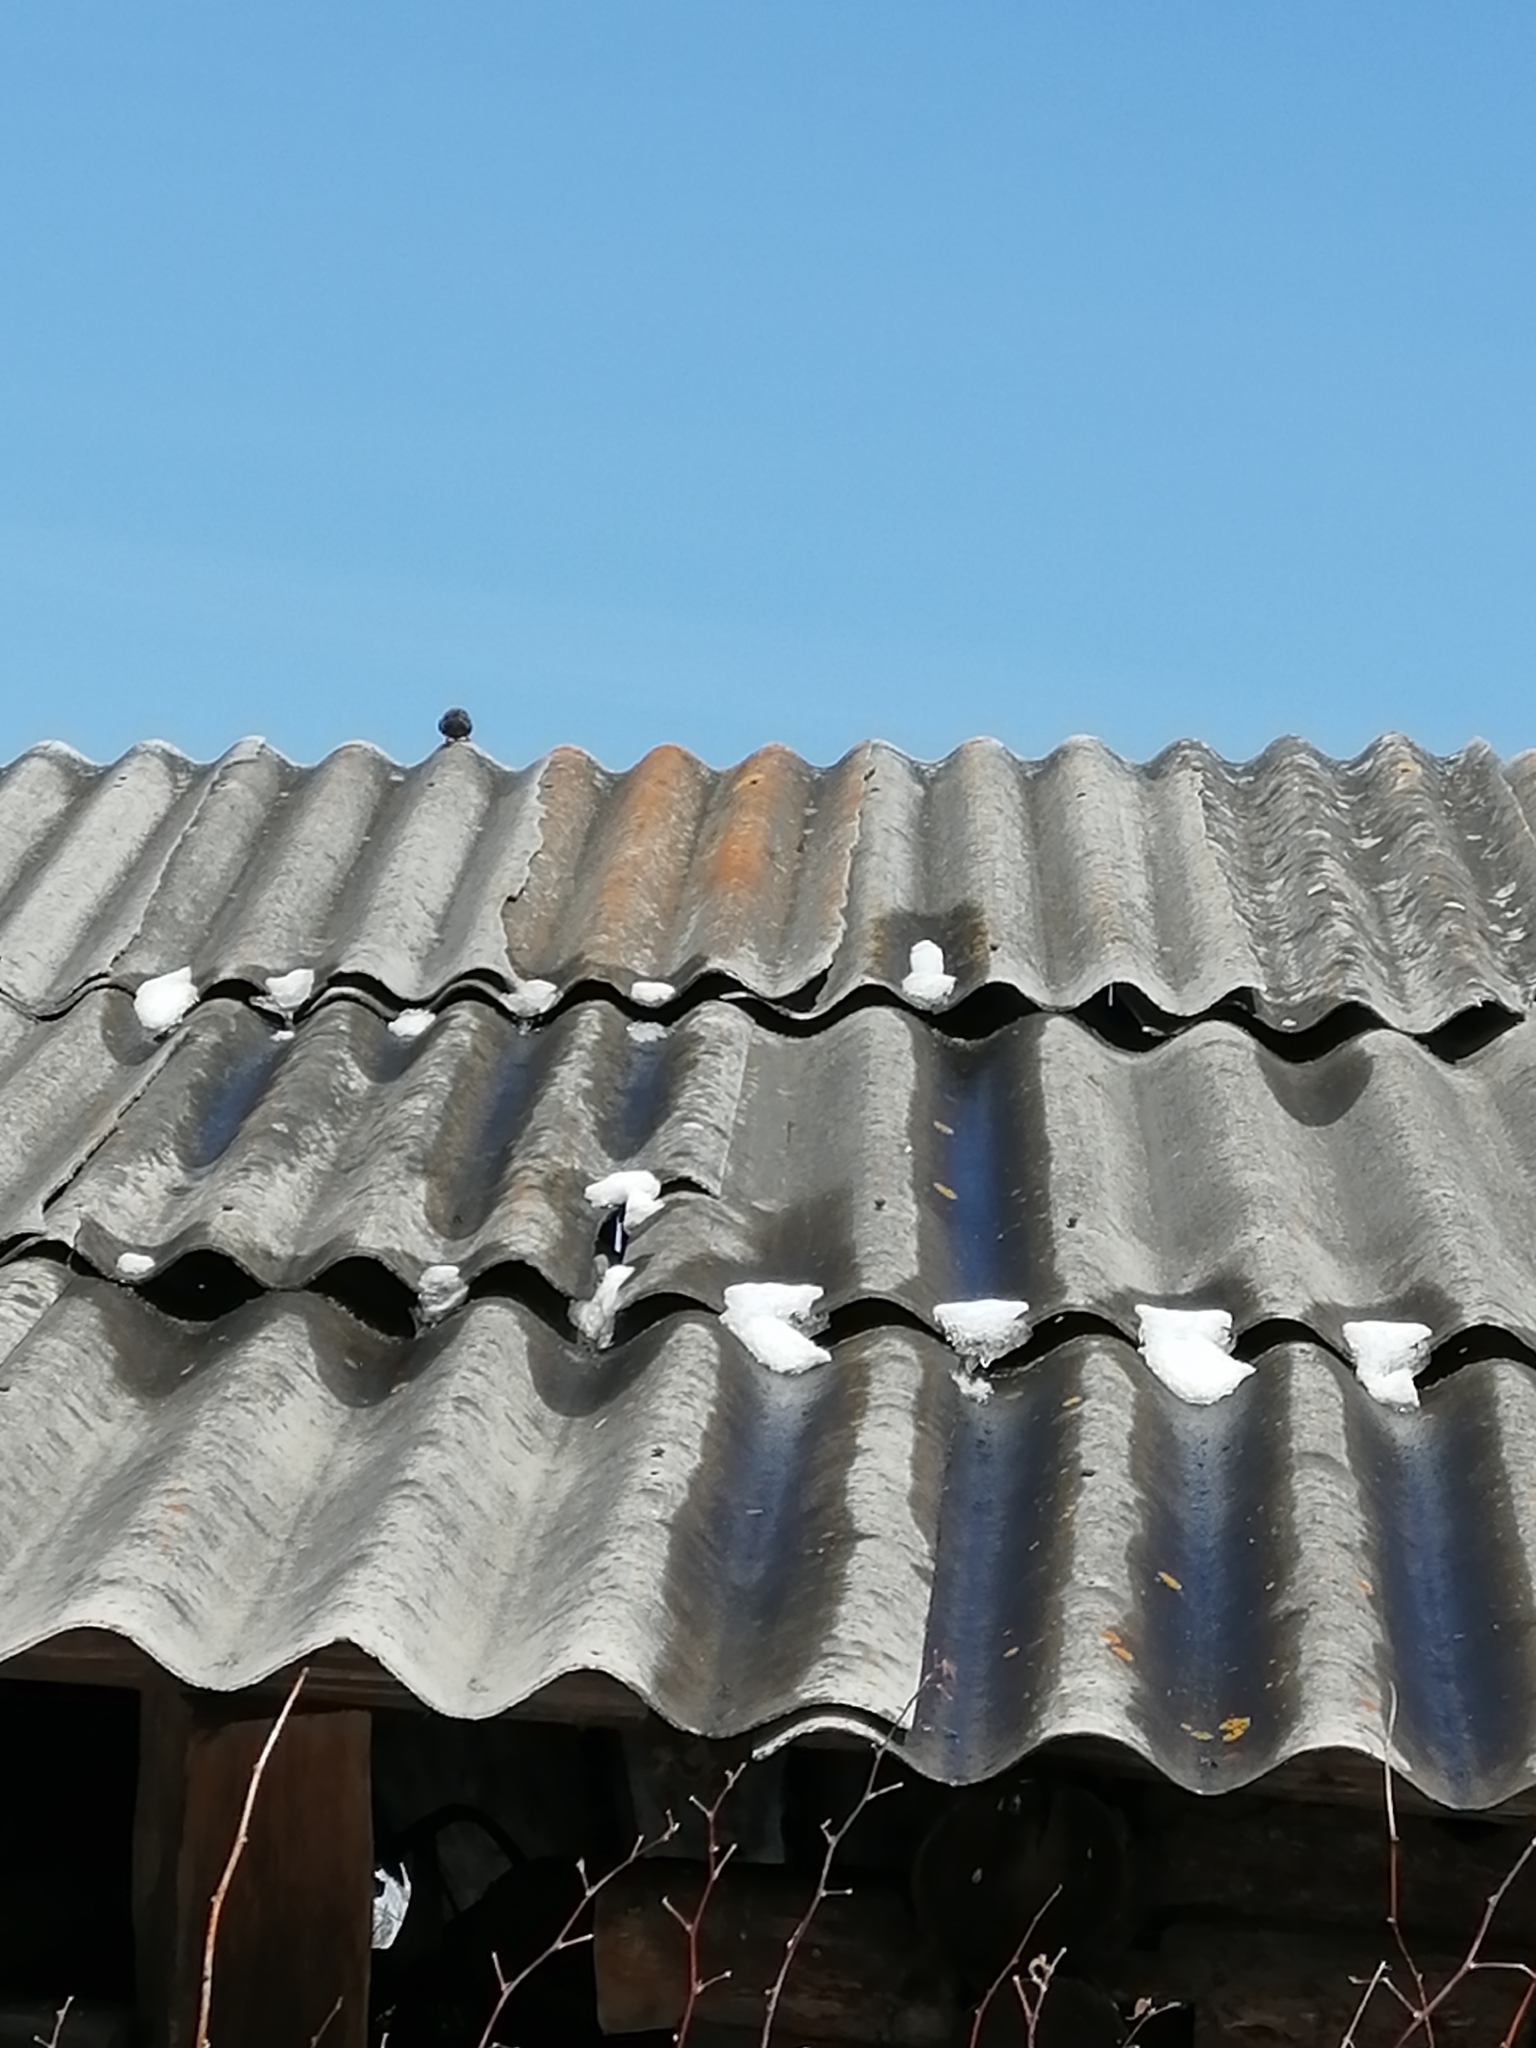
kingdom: Animalia
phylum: Chordata
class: Aves
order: Passeriformes
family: Passeridae
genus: Passer
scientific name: Passer montanus
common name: Eurasian tree sparrow
